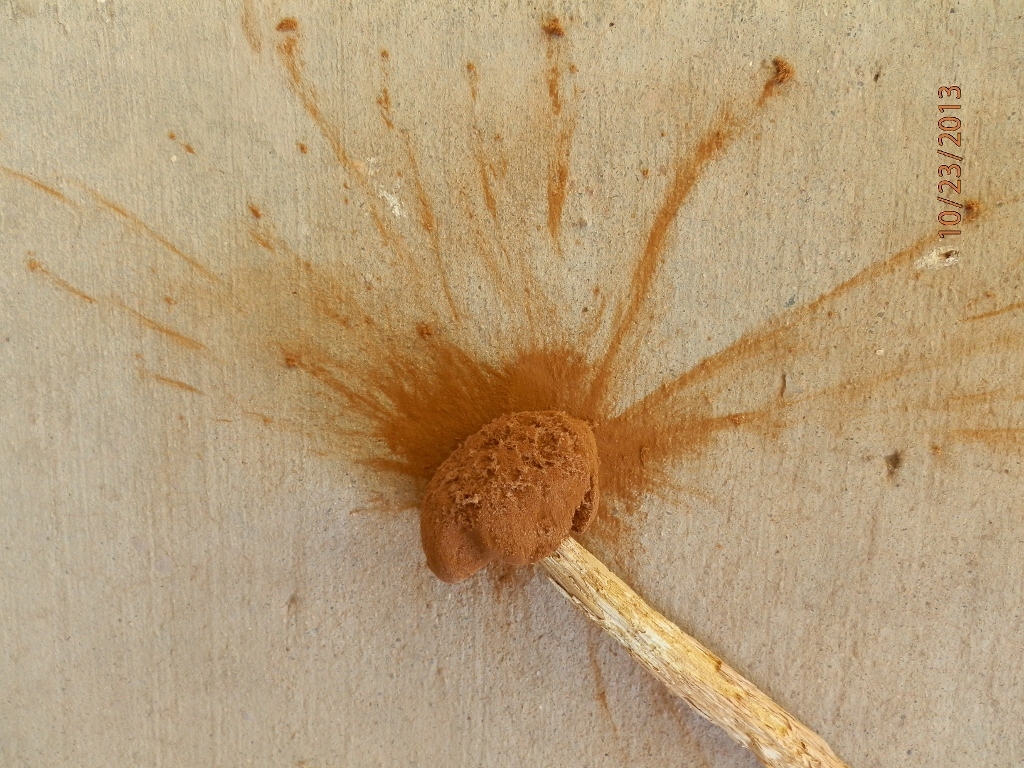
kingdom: Fungi
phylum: Basidiomycota
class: Agaricomycetes
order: Agaricales
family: Agaricaceae
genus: Battarrea
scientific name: Battarrea phalloides
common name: Sandy stiltball
